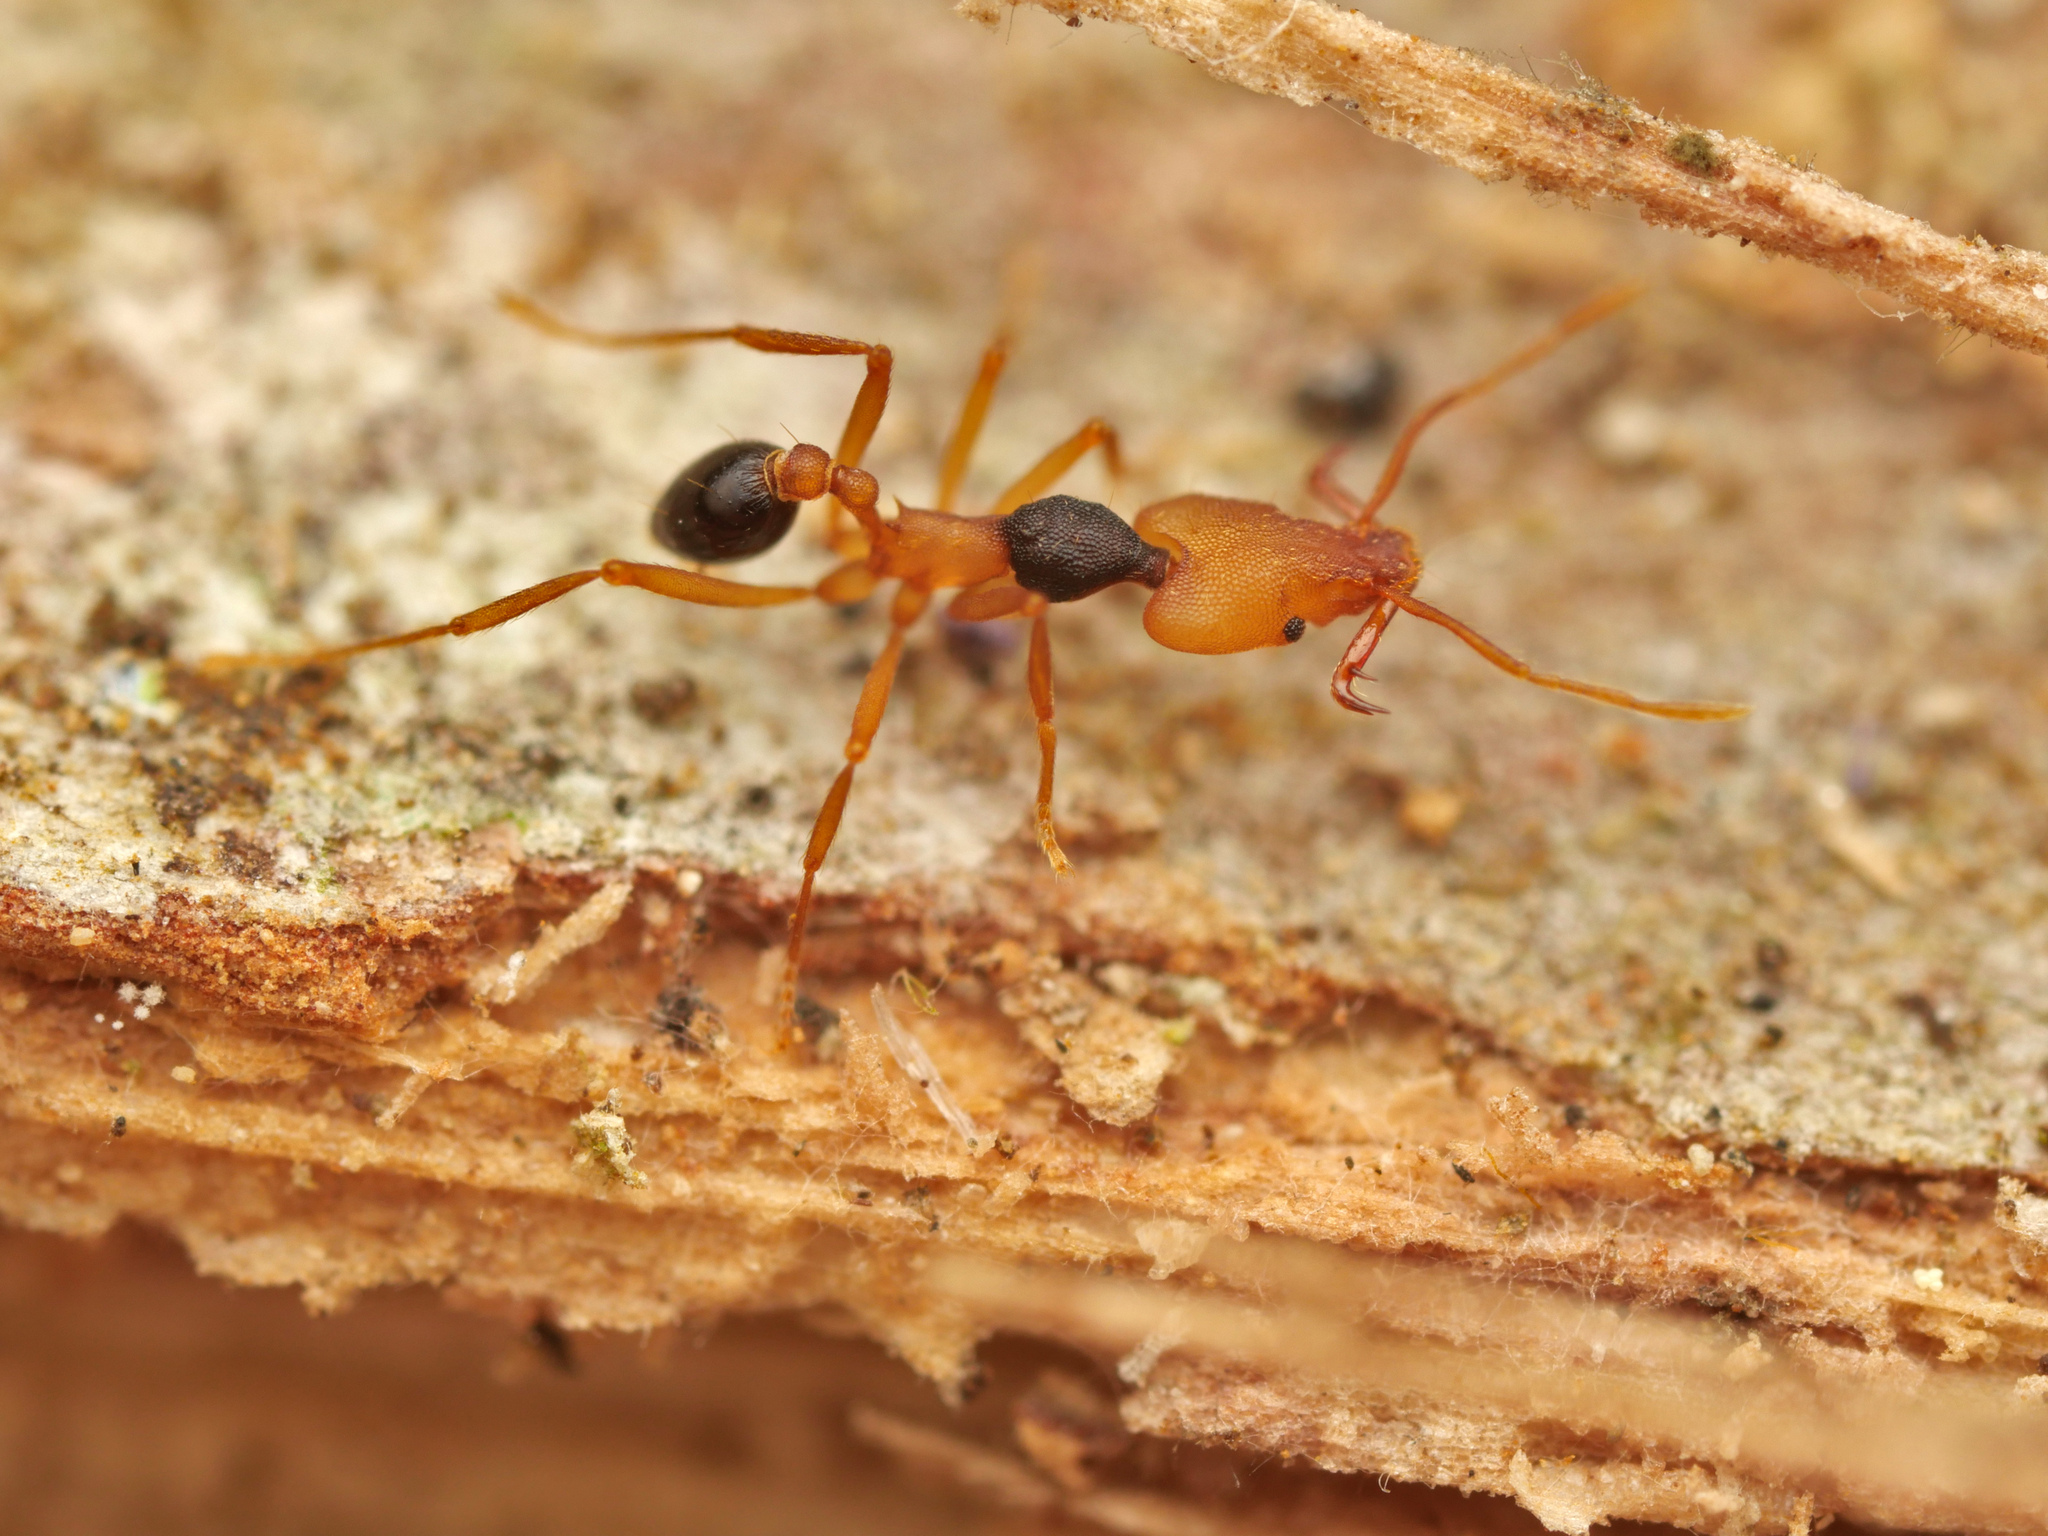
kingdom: Animalia
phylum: Arthropoda
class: Insecta
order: Hymenoptera
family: Formicidae
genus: Strumigenys
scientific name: Strumigenys hemichlaena
